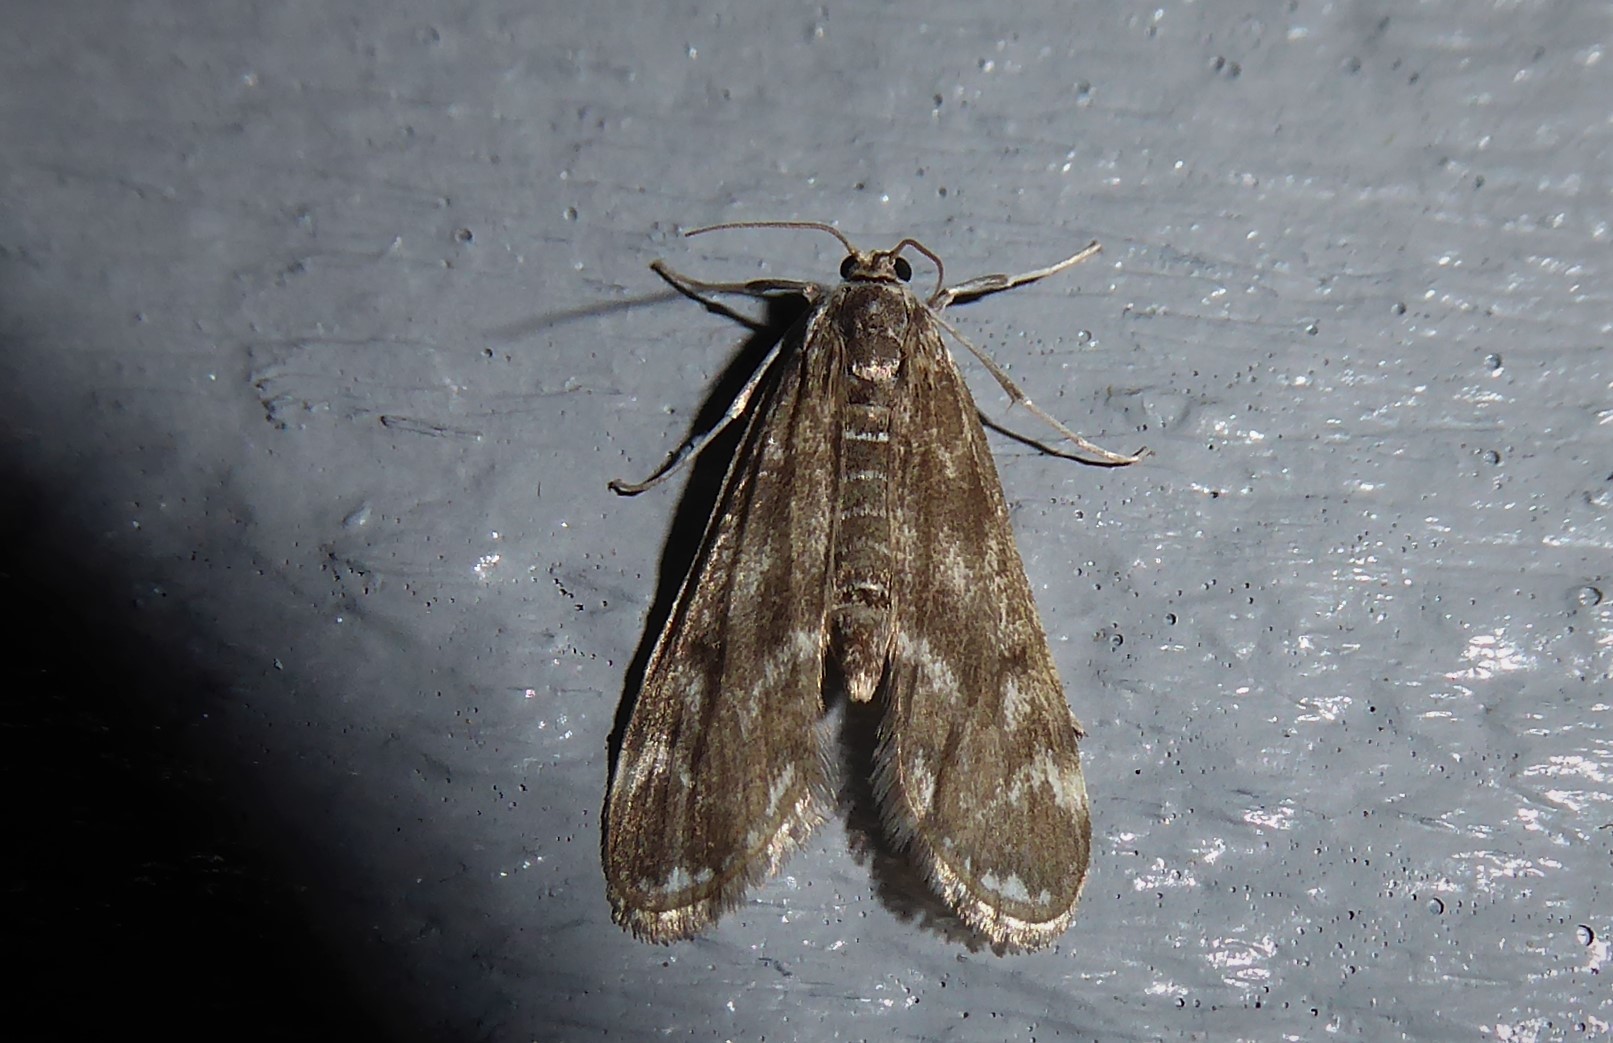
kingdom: Animalia
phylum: Arthropoda
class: Insecta
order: Lepidoptera
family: Crambidae
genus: Hygraula
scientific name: Hygraula nitens
